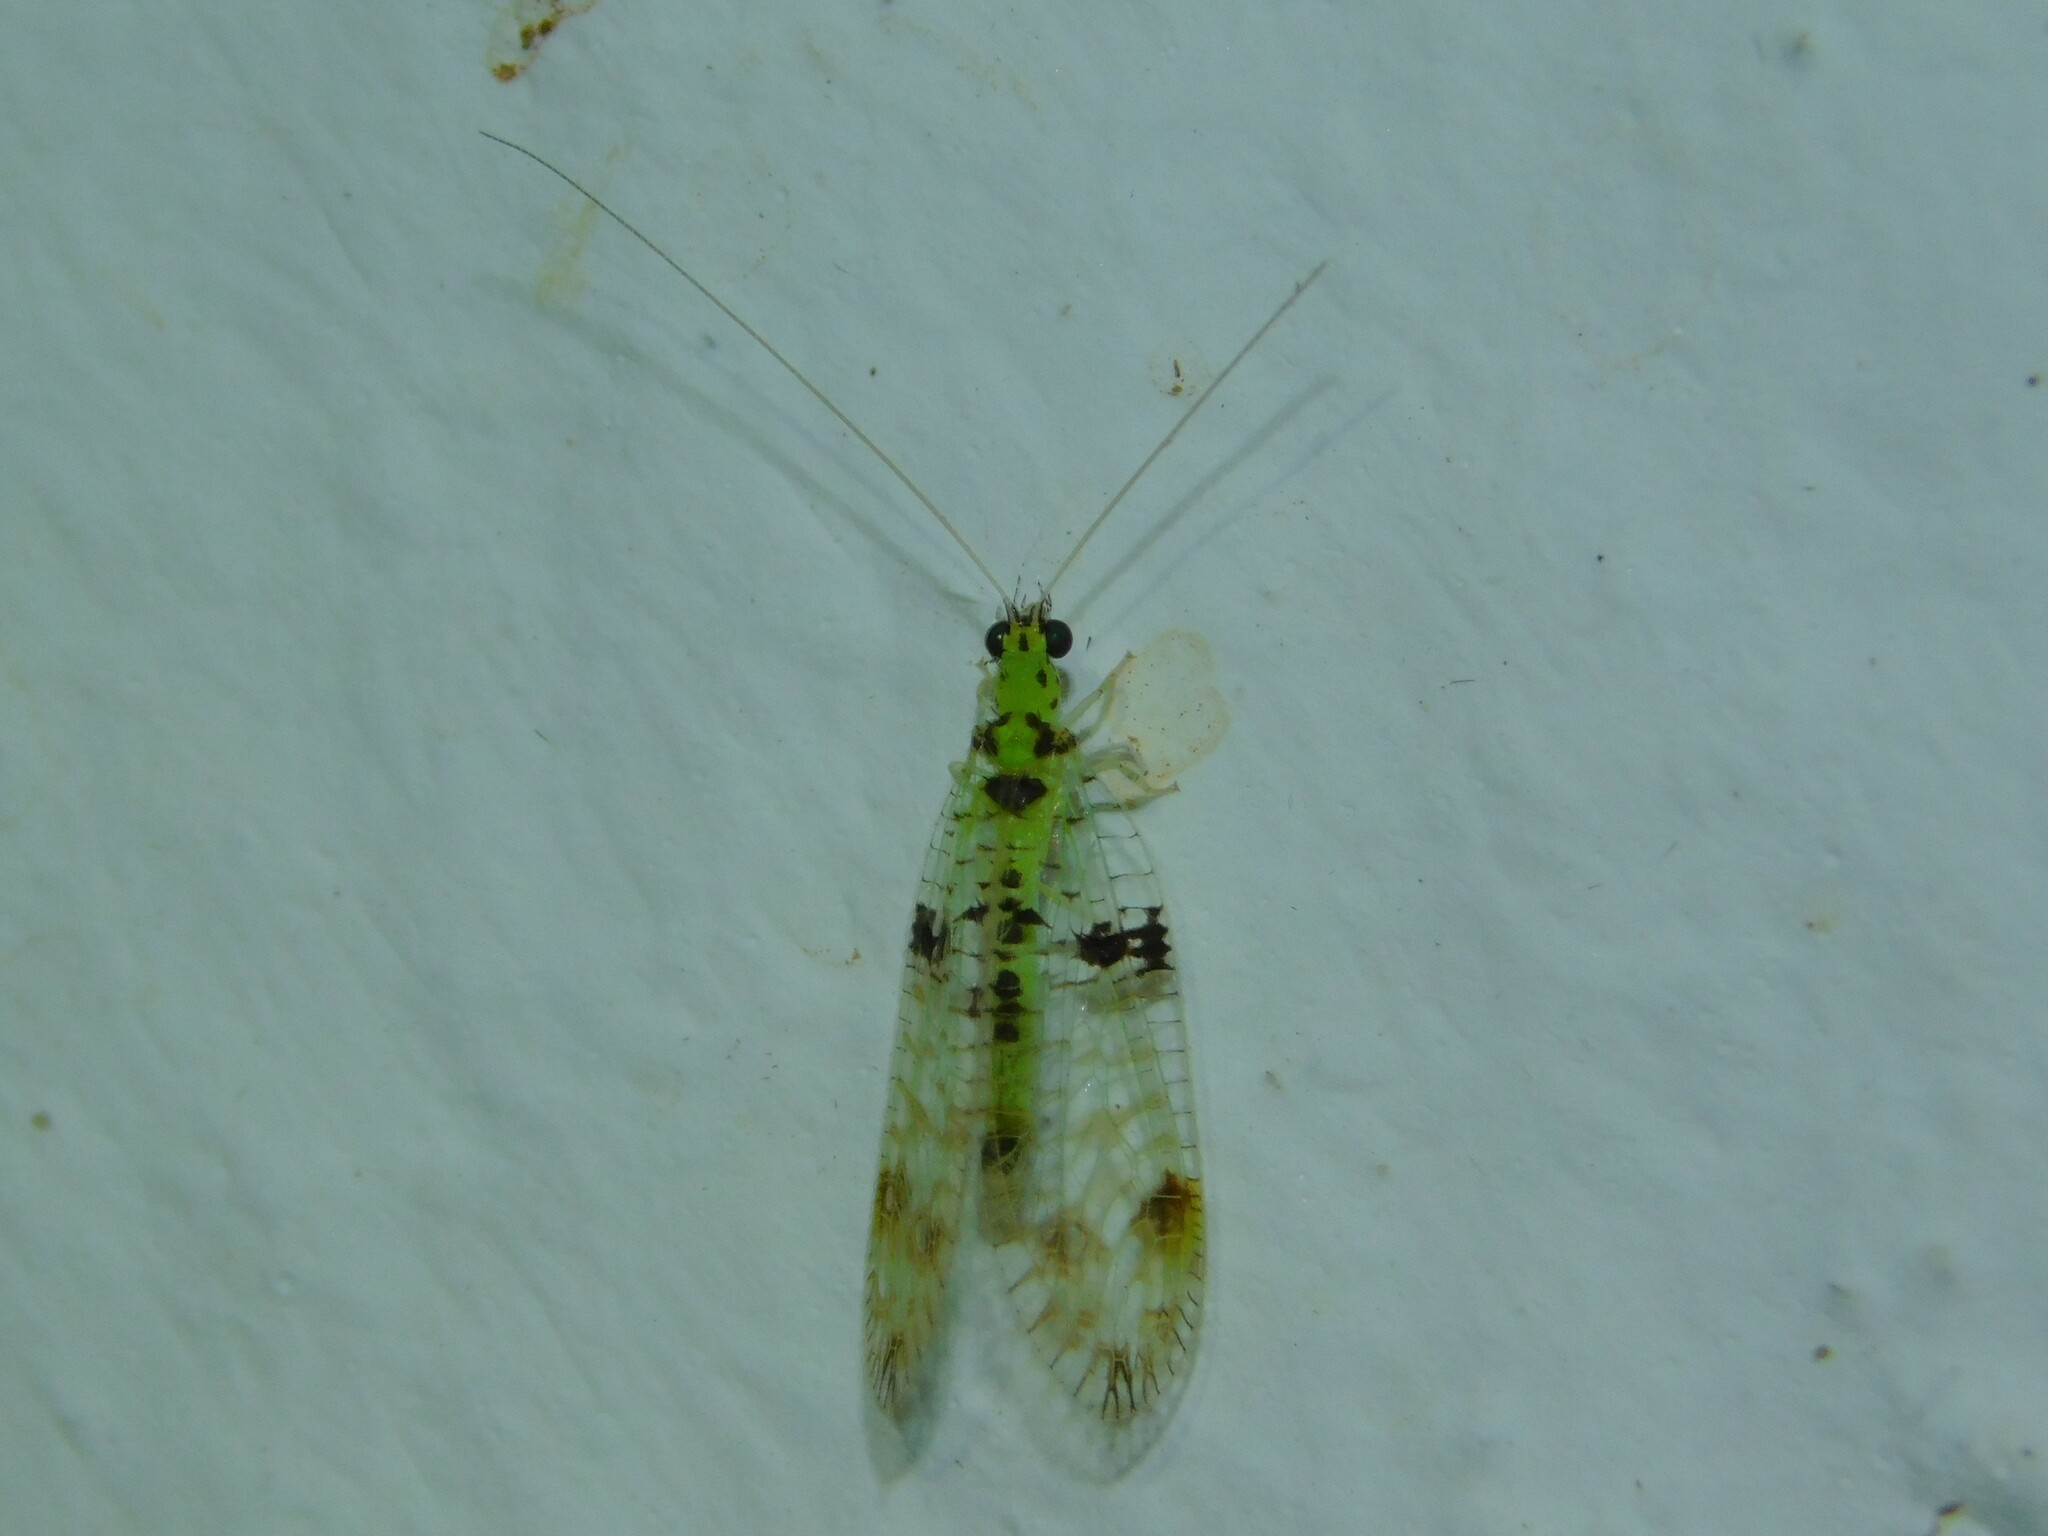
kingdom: Animalia
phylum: Arthropoda
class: Insecta
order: Neuroptera
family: Chrysopidae
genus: Glenochrysa
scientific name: Glenochrysa principissa
